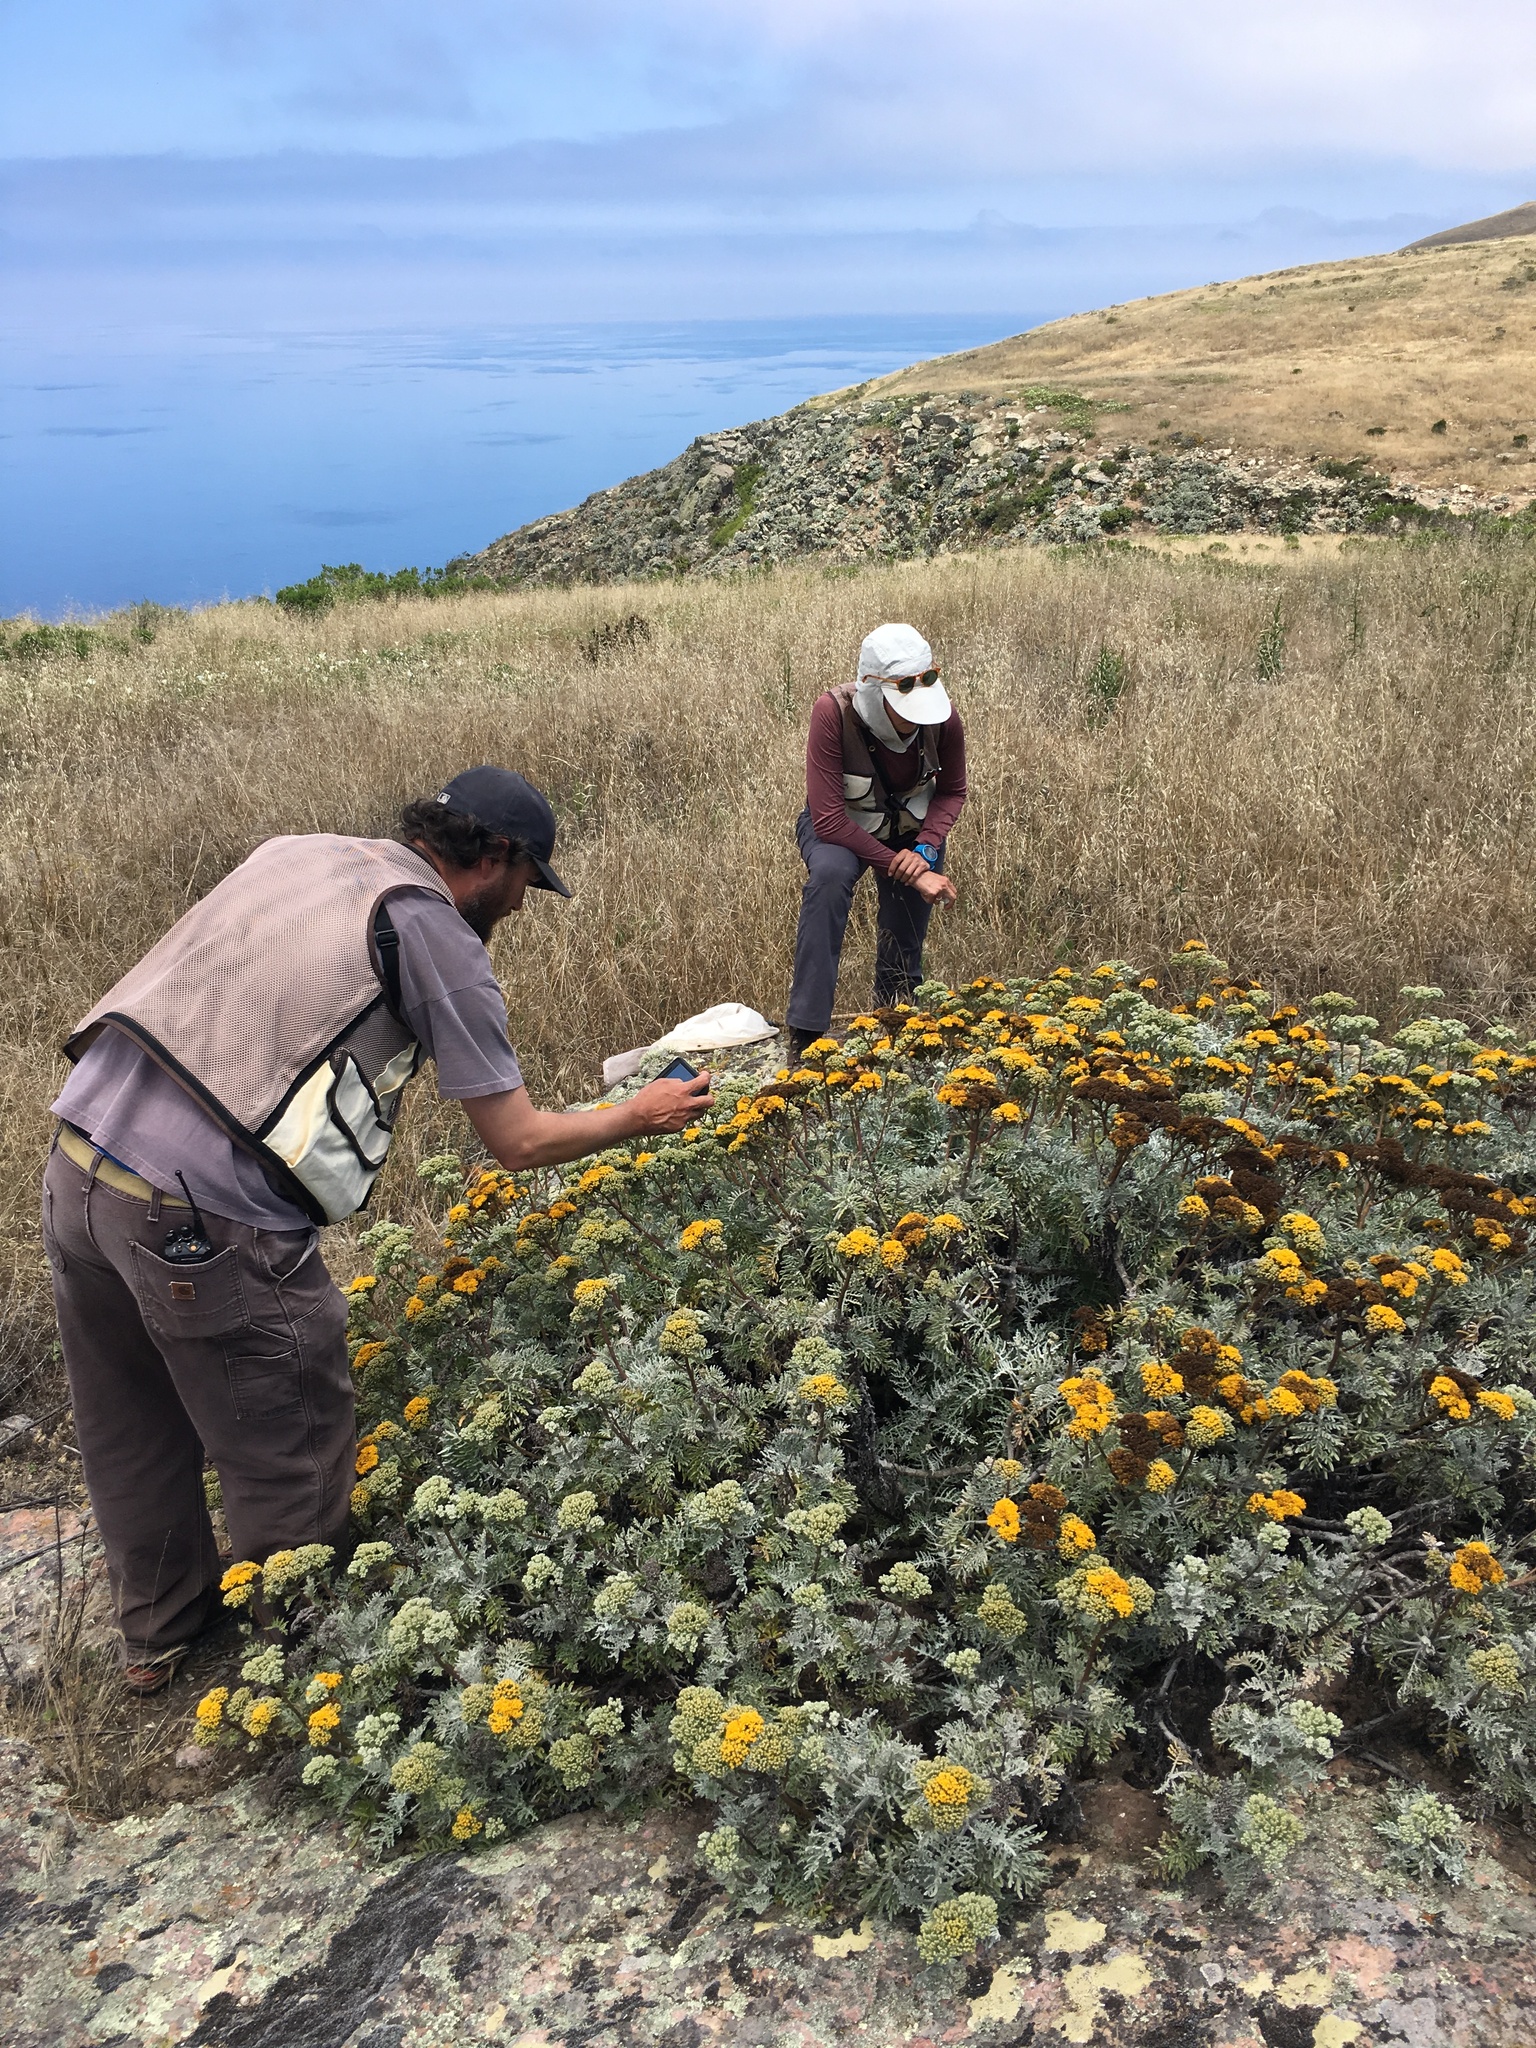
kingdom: Plantae
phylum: Tracheophyta
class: Magnoliopsida
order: Asterales
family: Asteraceae
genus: Constancea
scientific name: Constancea nevinii
